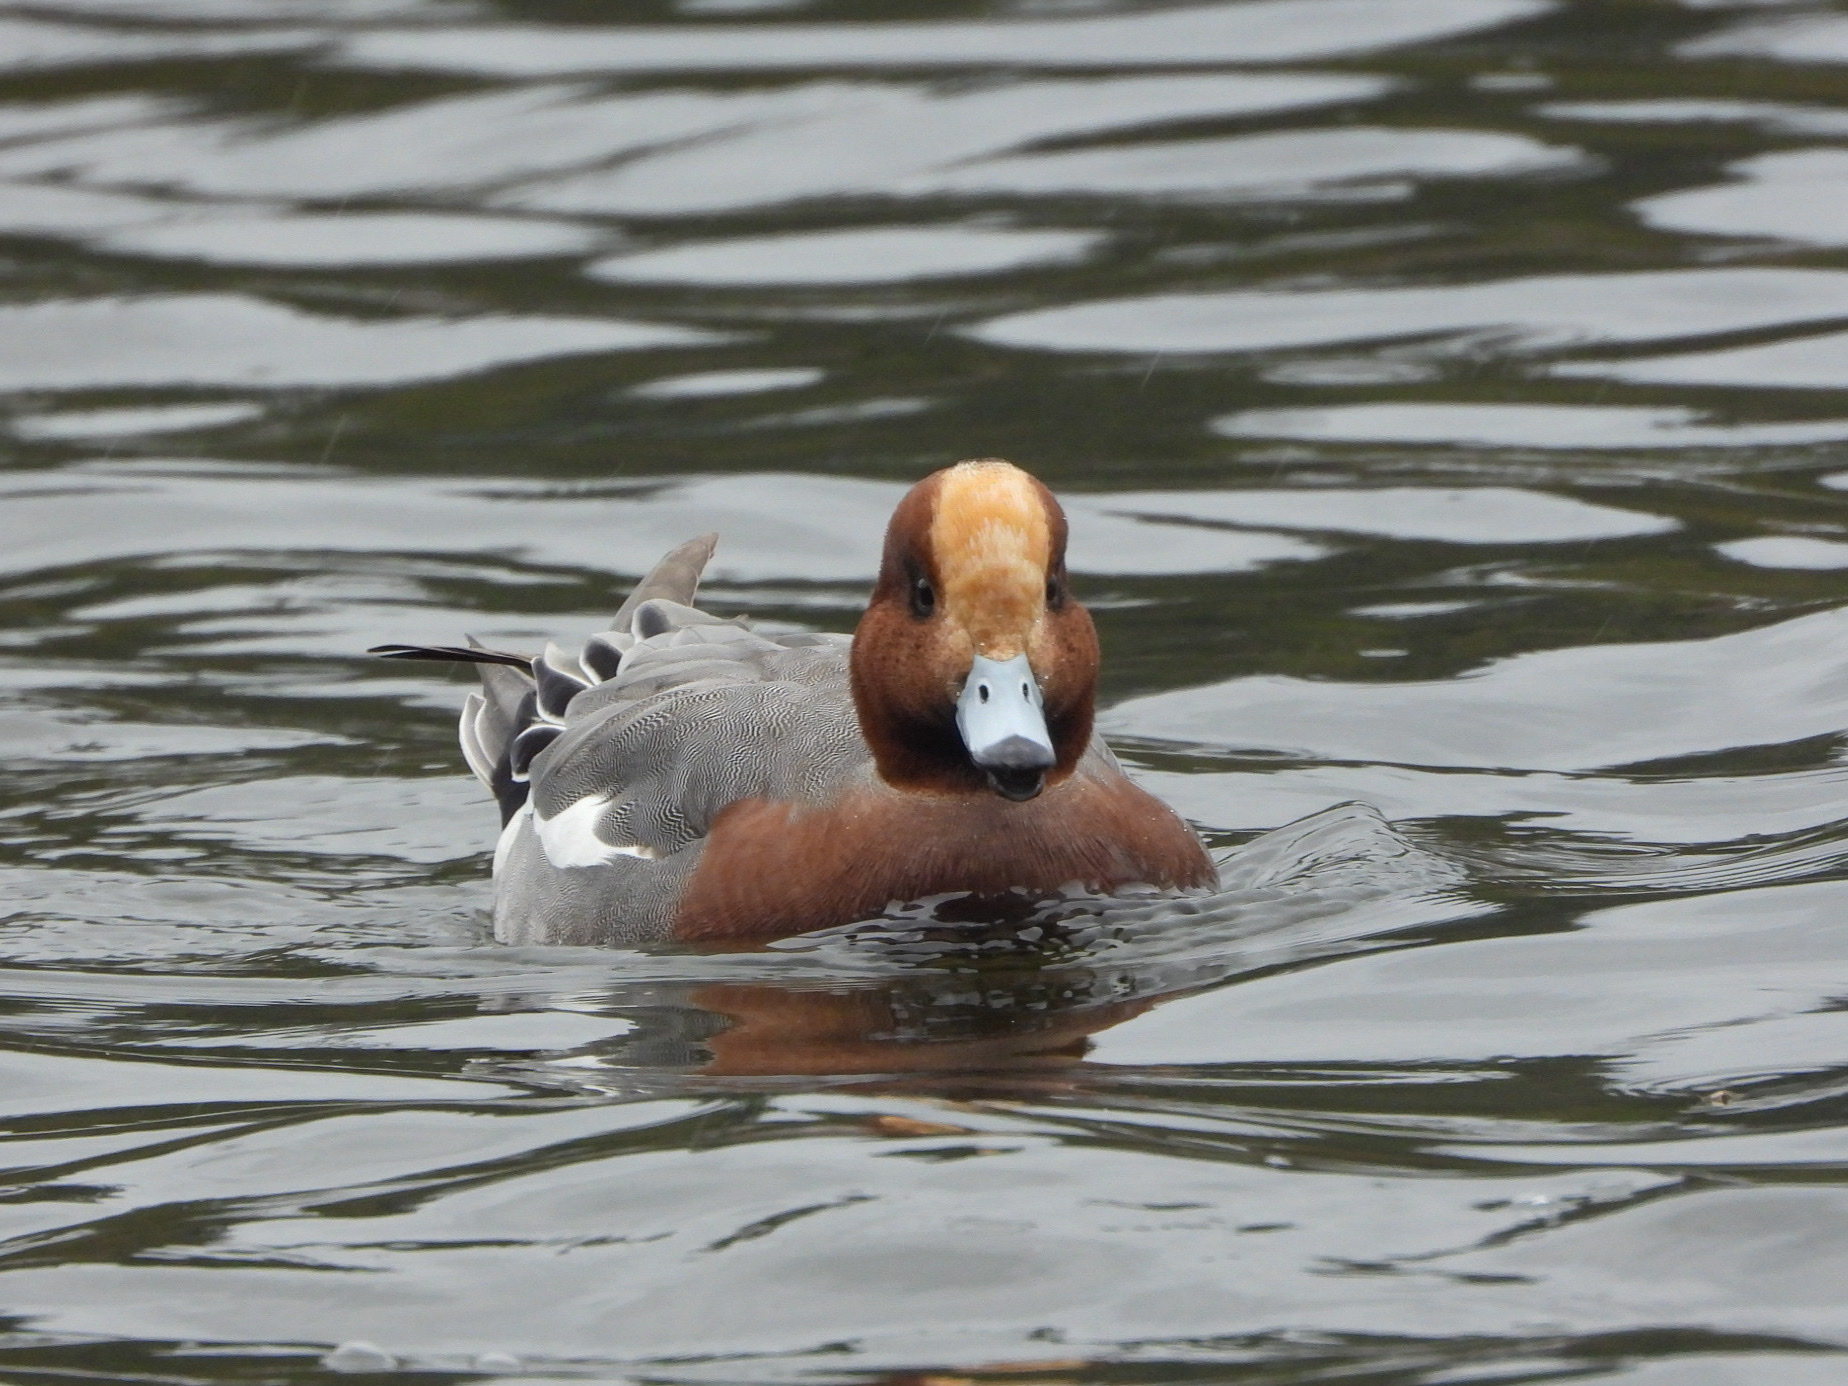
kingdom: Animalia
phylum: Chordata
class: Aves
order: Anseriformes
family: Anatidae
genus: Mareca
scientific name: Mareca penelope
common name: Eurasian wigeon
